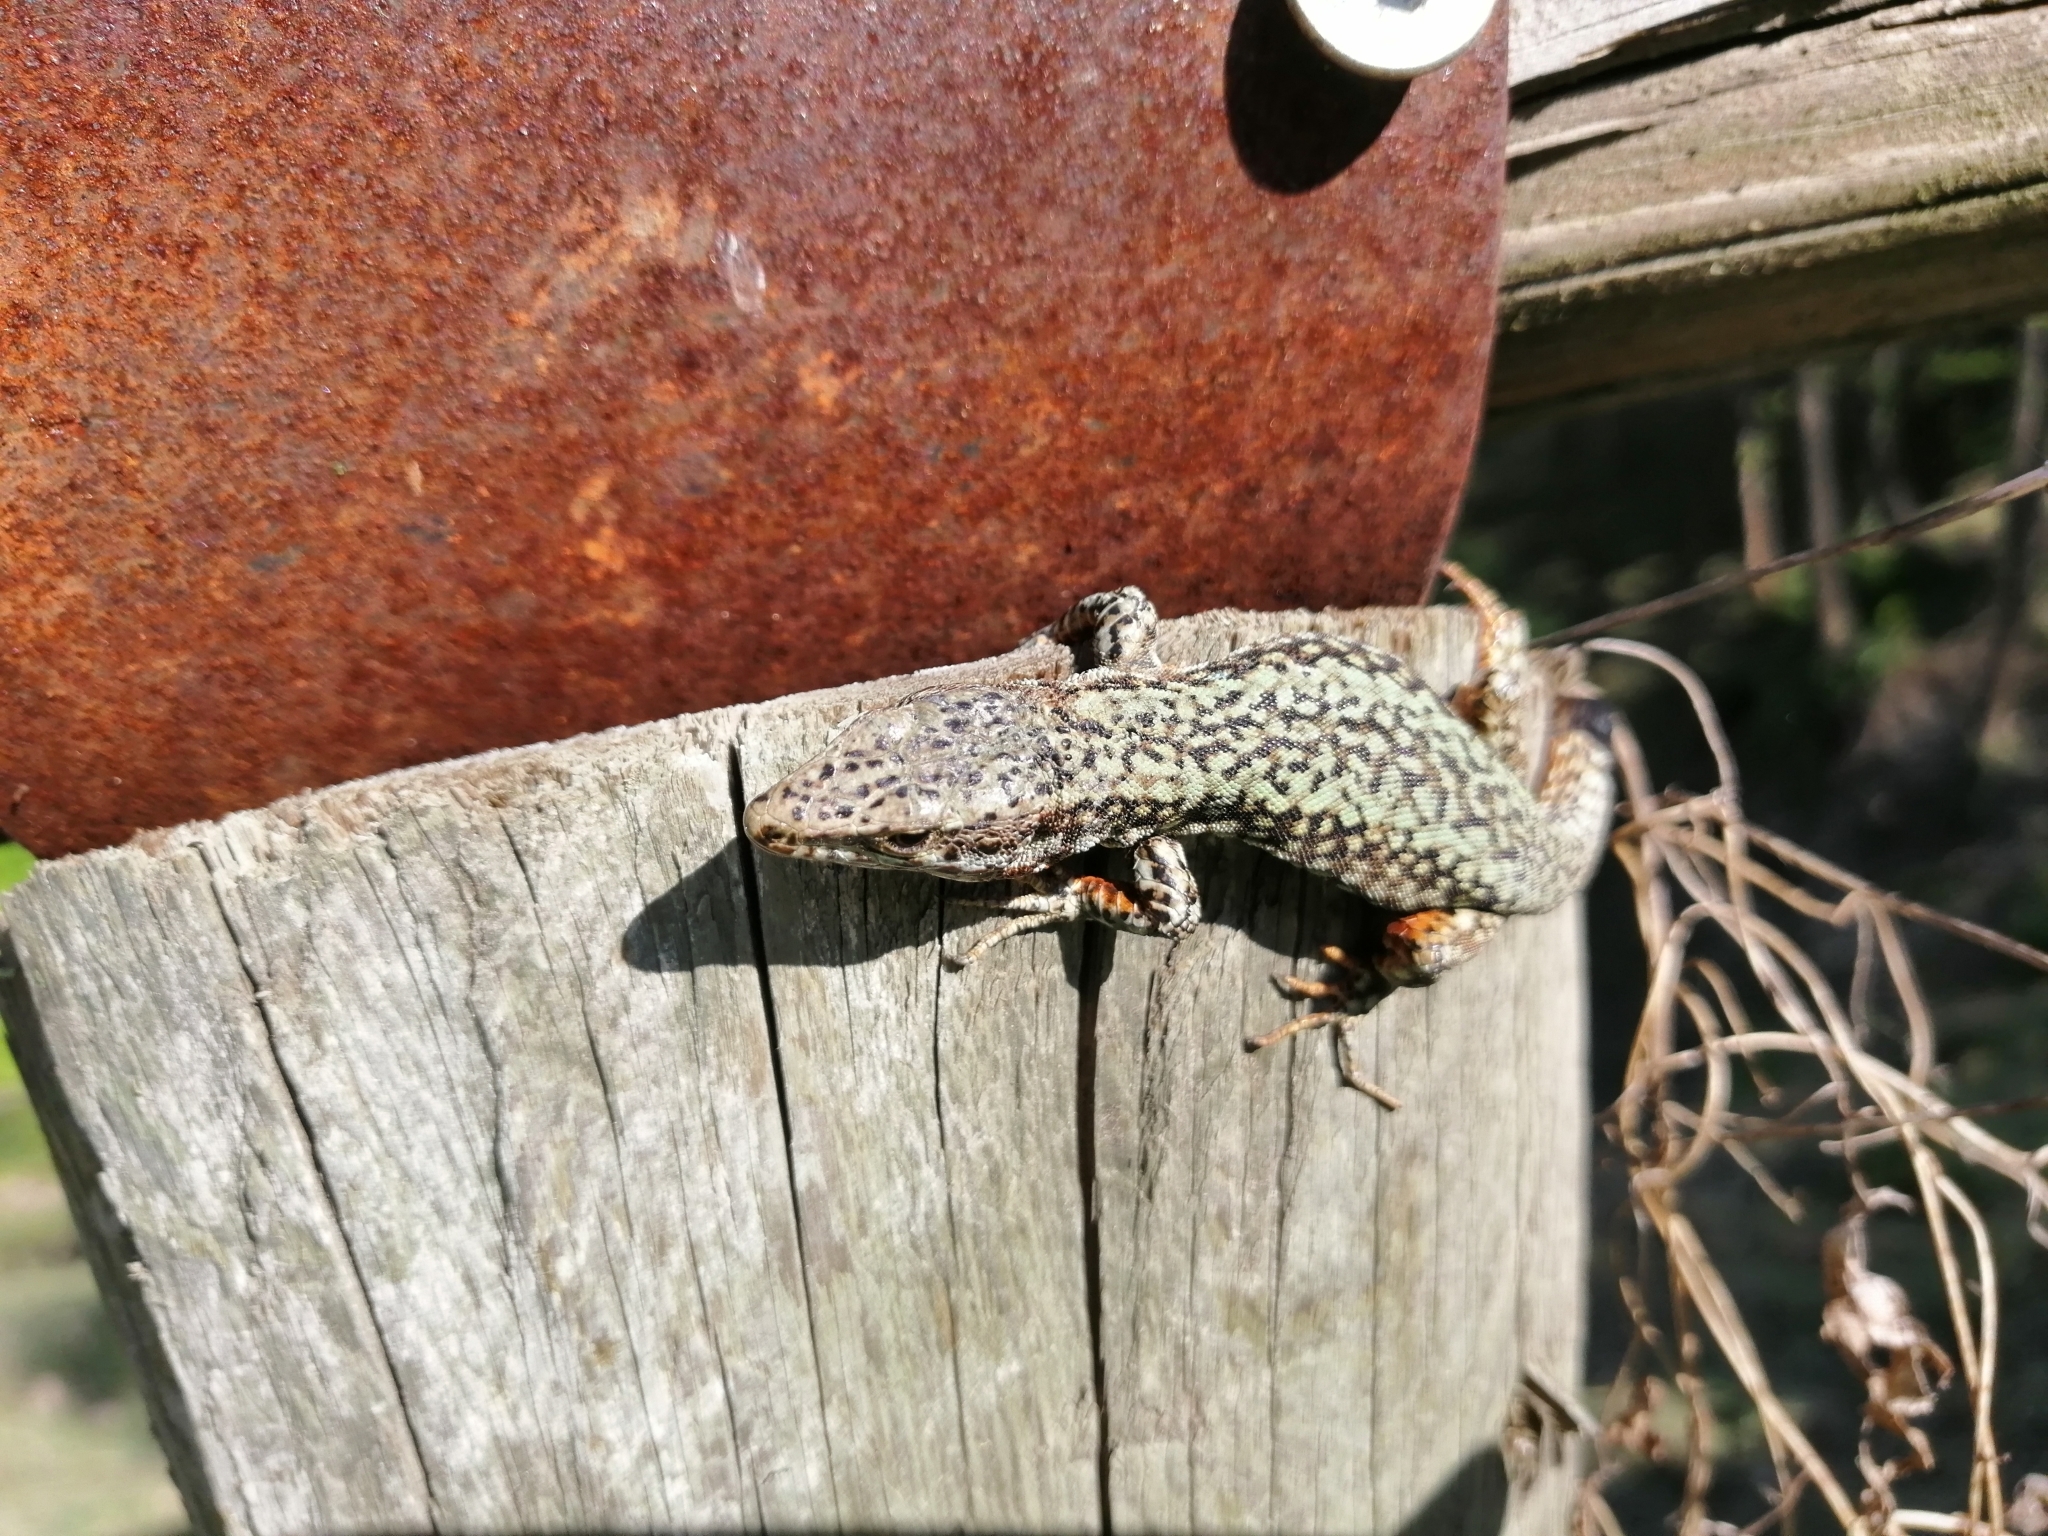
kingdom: Animalia
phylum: Chordata
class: Squamata
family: Lacertidae
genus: Podarcis
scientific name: Podarcis muralis
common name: Common wall lizard
